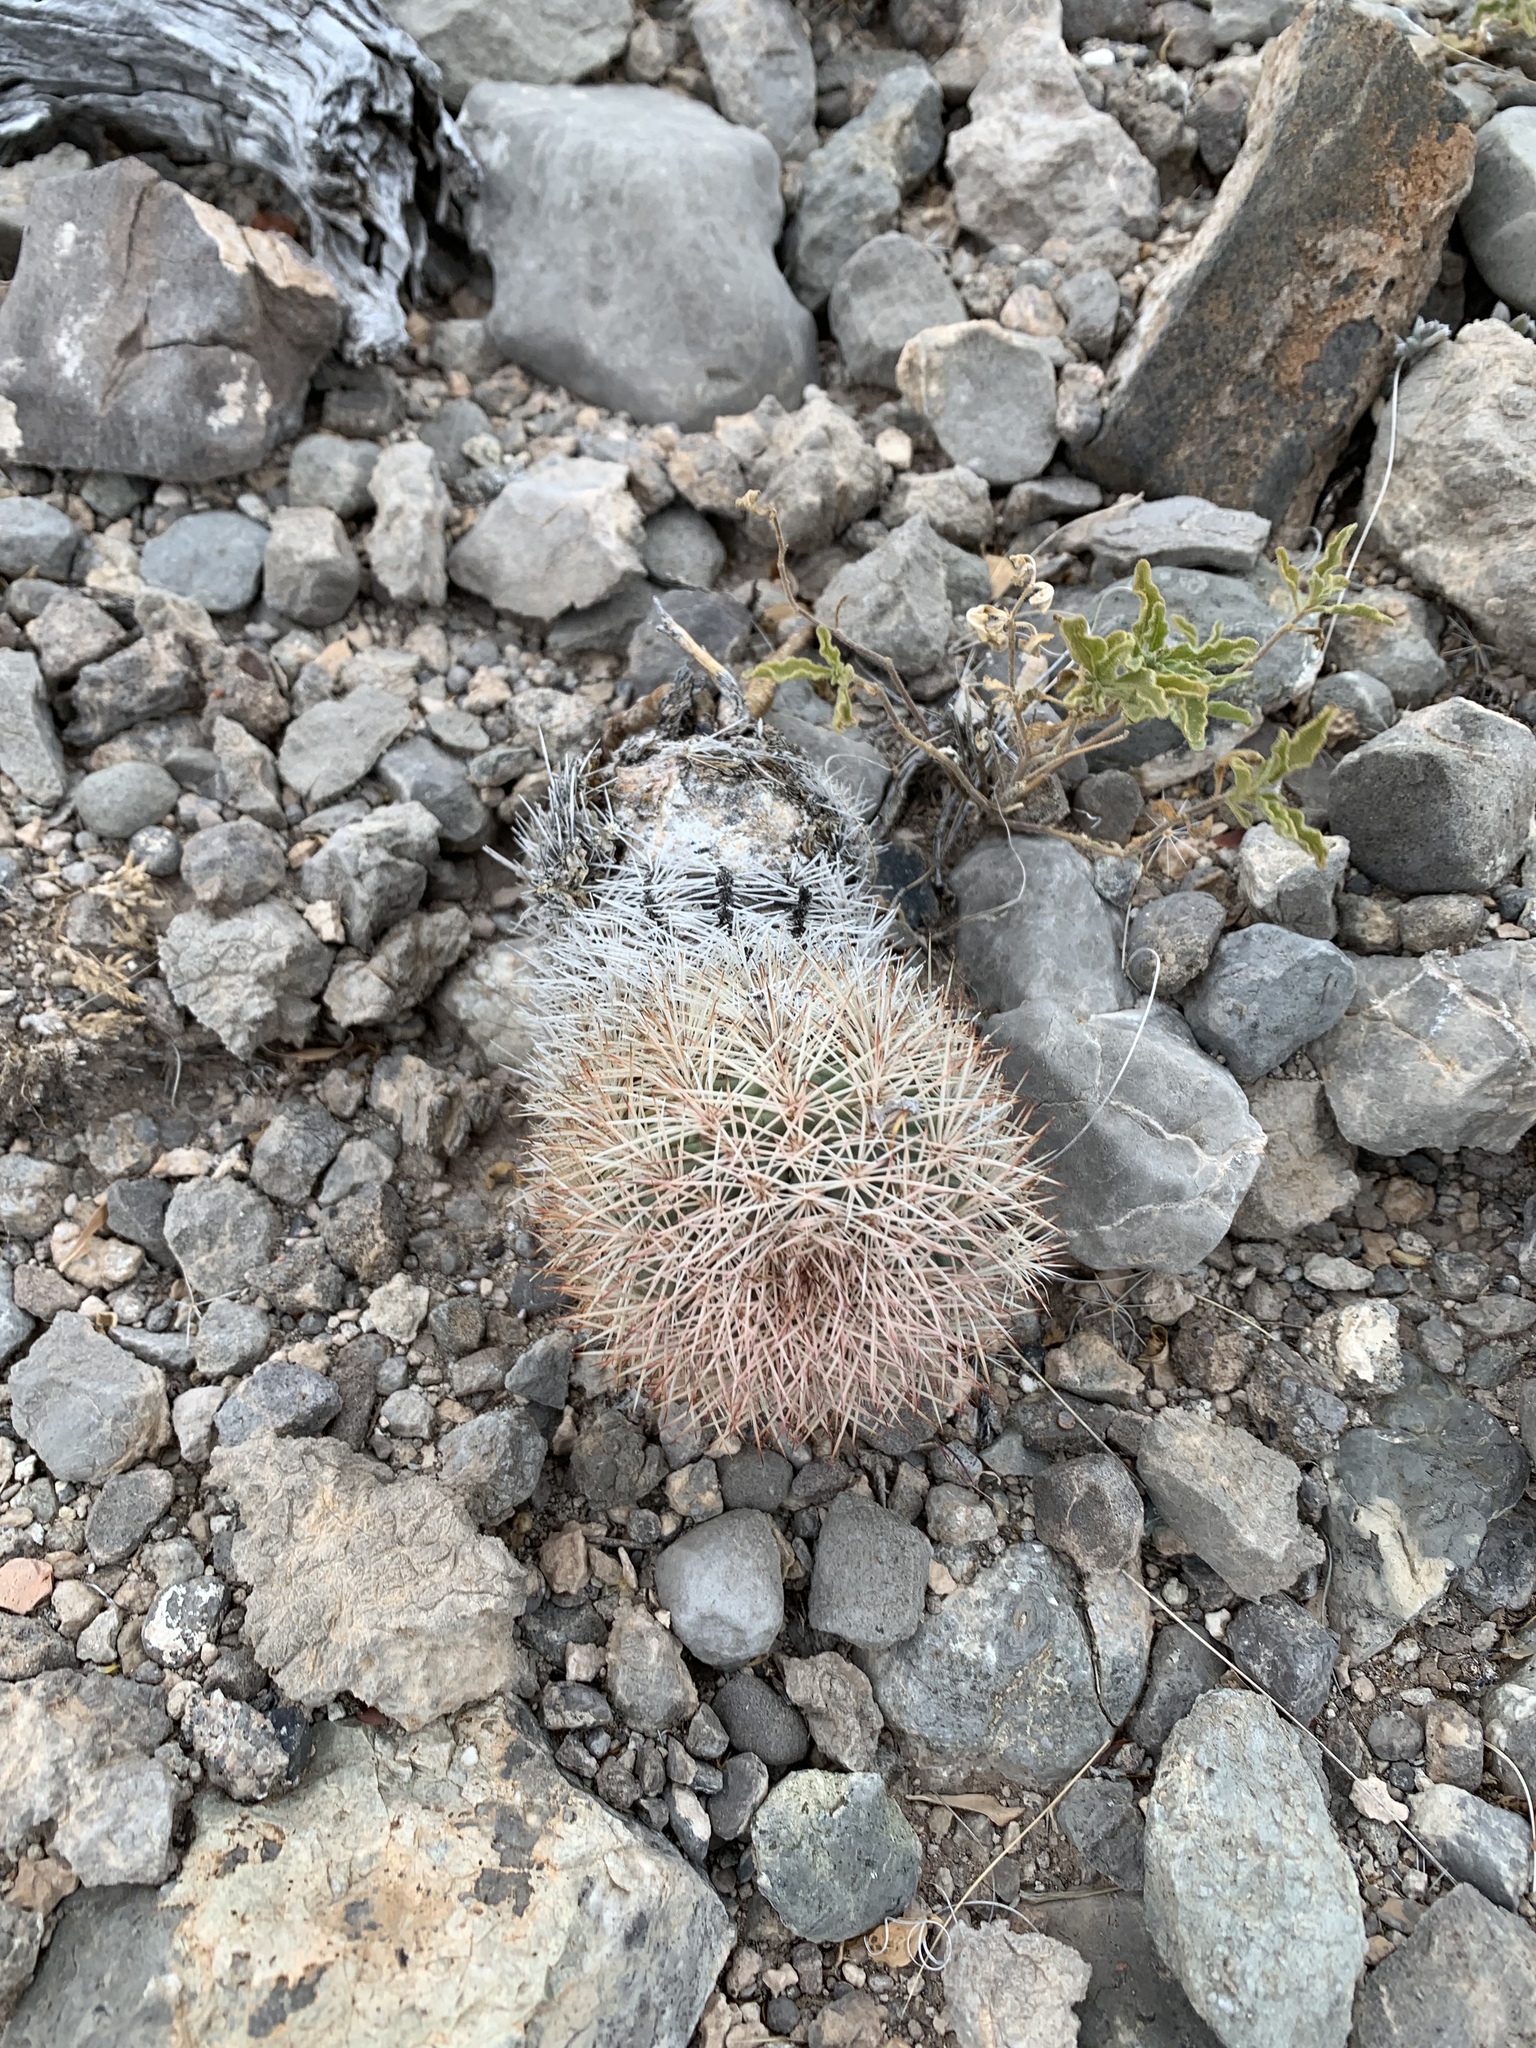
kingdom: Plantae
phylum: Tracheophyta
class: Magnoliopsida
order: Caryophyllales
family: Cactaceae
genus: Echinocereus
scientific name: Echinocereus dasyacanthus
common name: Spiny hedgehog cactus
